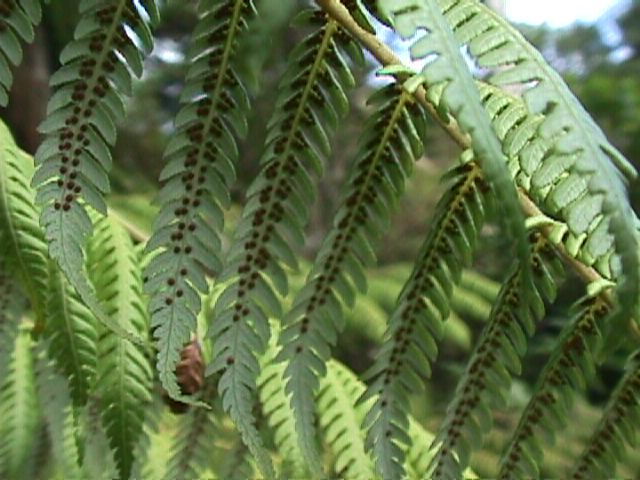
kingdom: Plantae
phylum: Tracheophyta
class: Polypodiopsida
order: Cyatheales
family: Cyatheaceae
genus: Alsophila
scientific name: Alsophila dealbata
